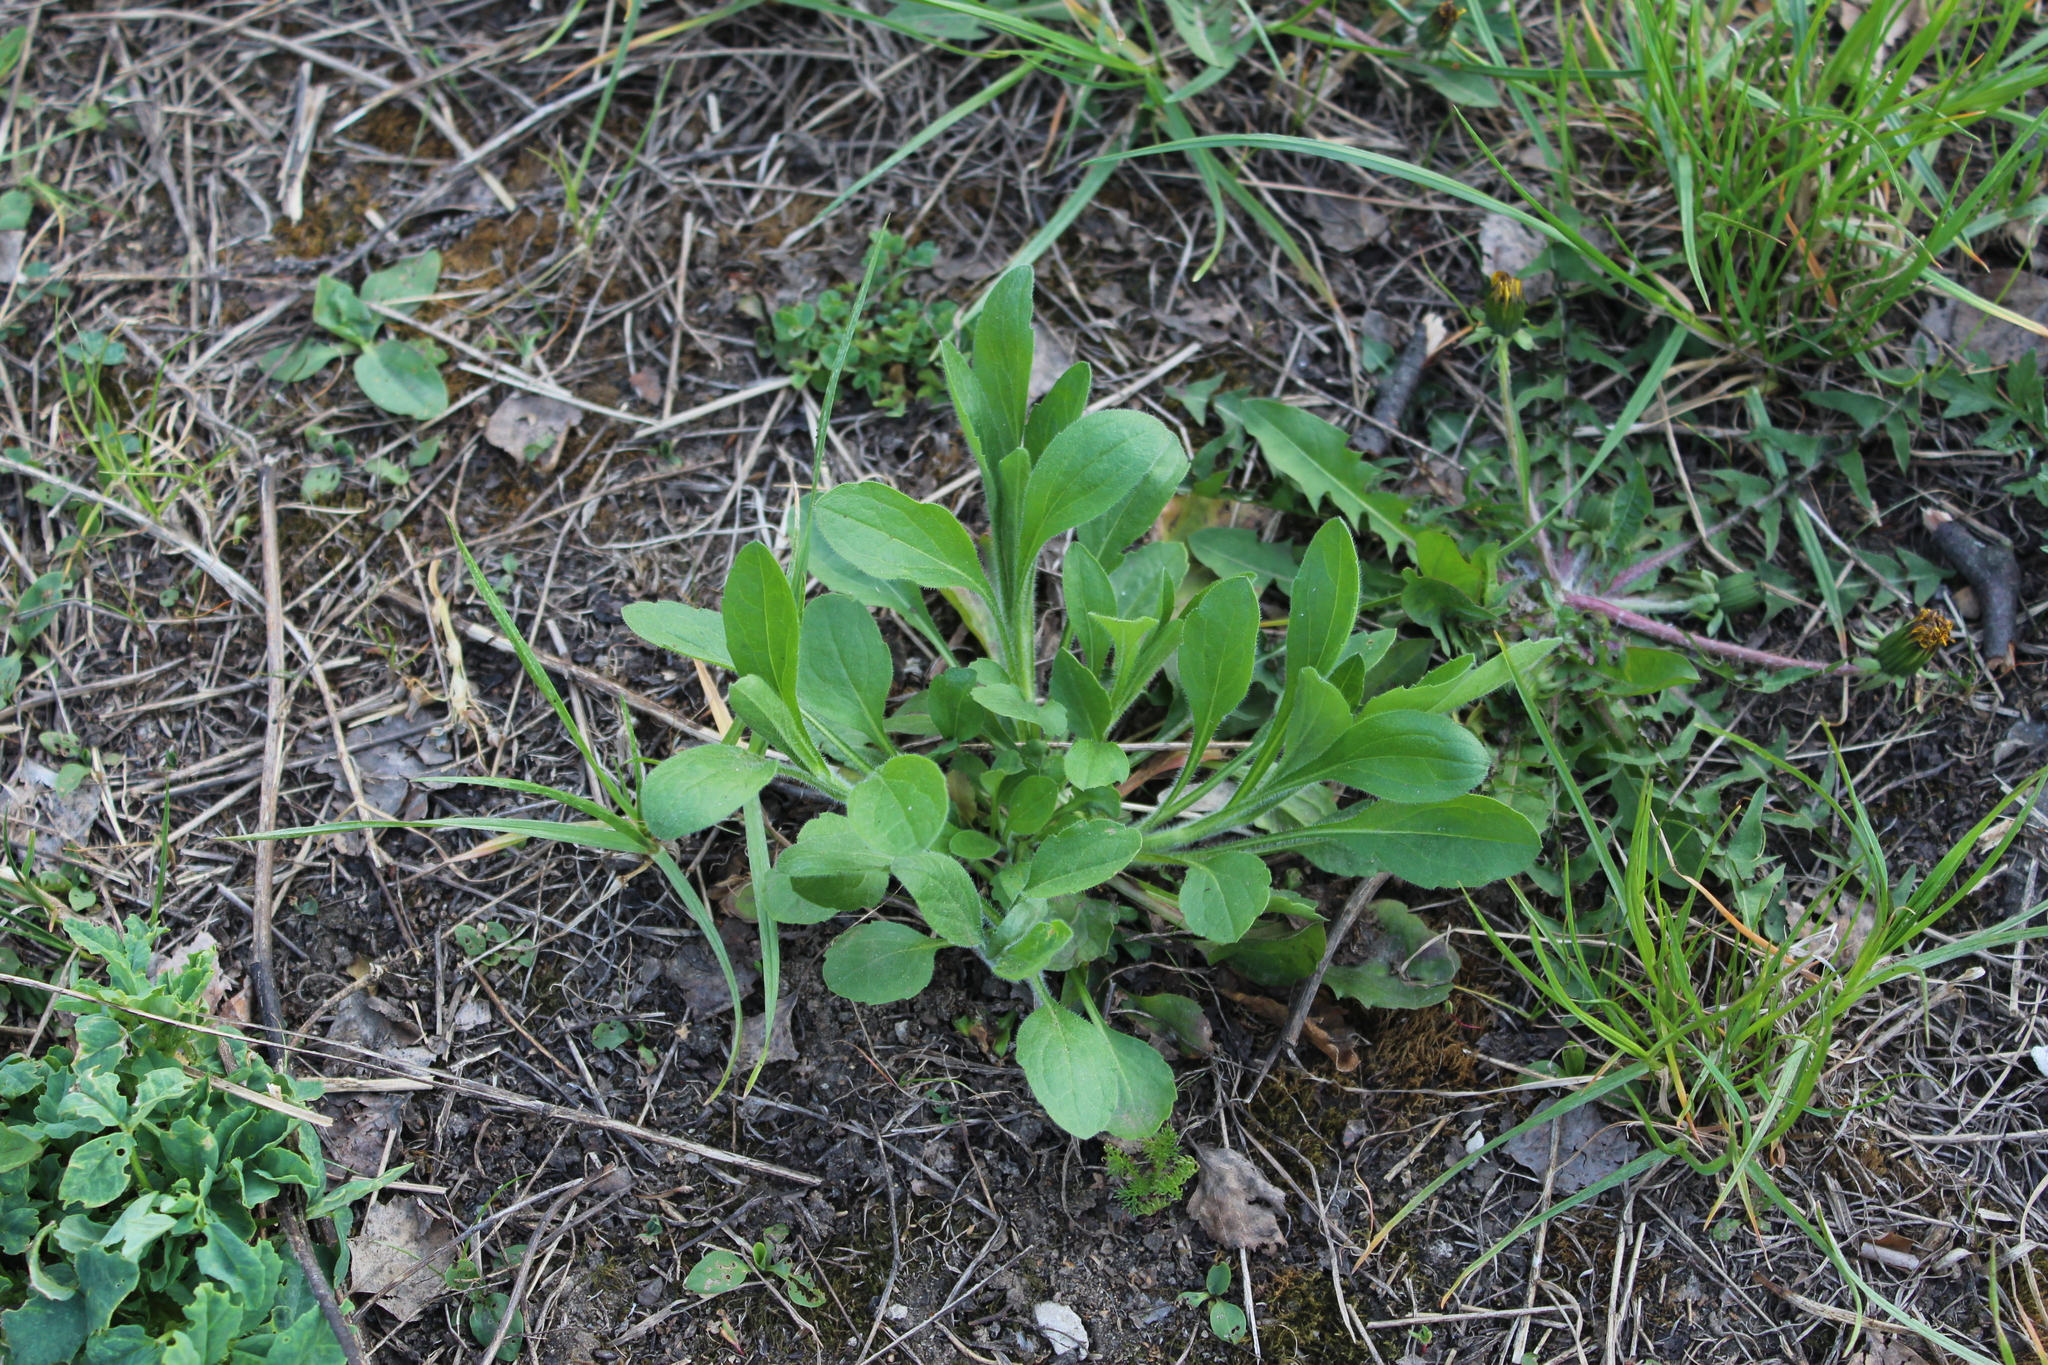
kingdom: Plantae
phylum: Tracheophyta
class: Magnoliopsida
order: Asterales
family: Asteraceae
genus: Erigeron
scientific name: Erigeron annuus
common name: Tall fleabane
